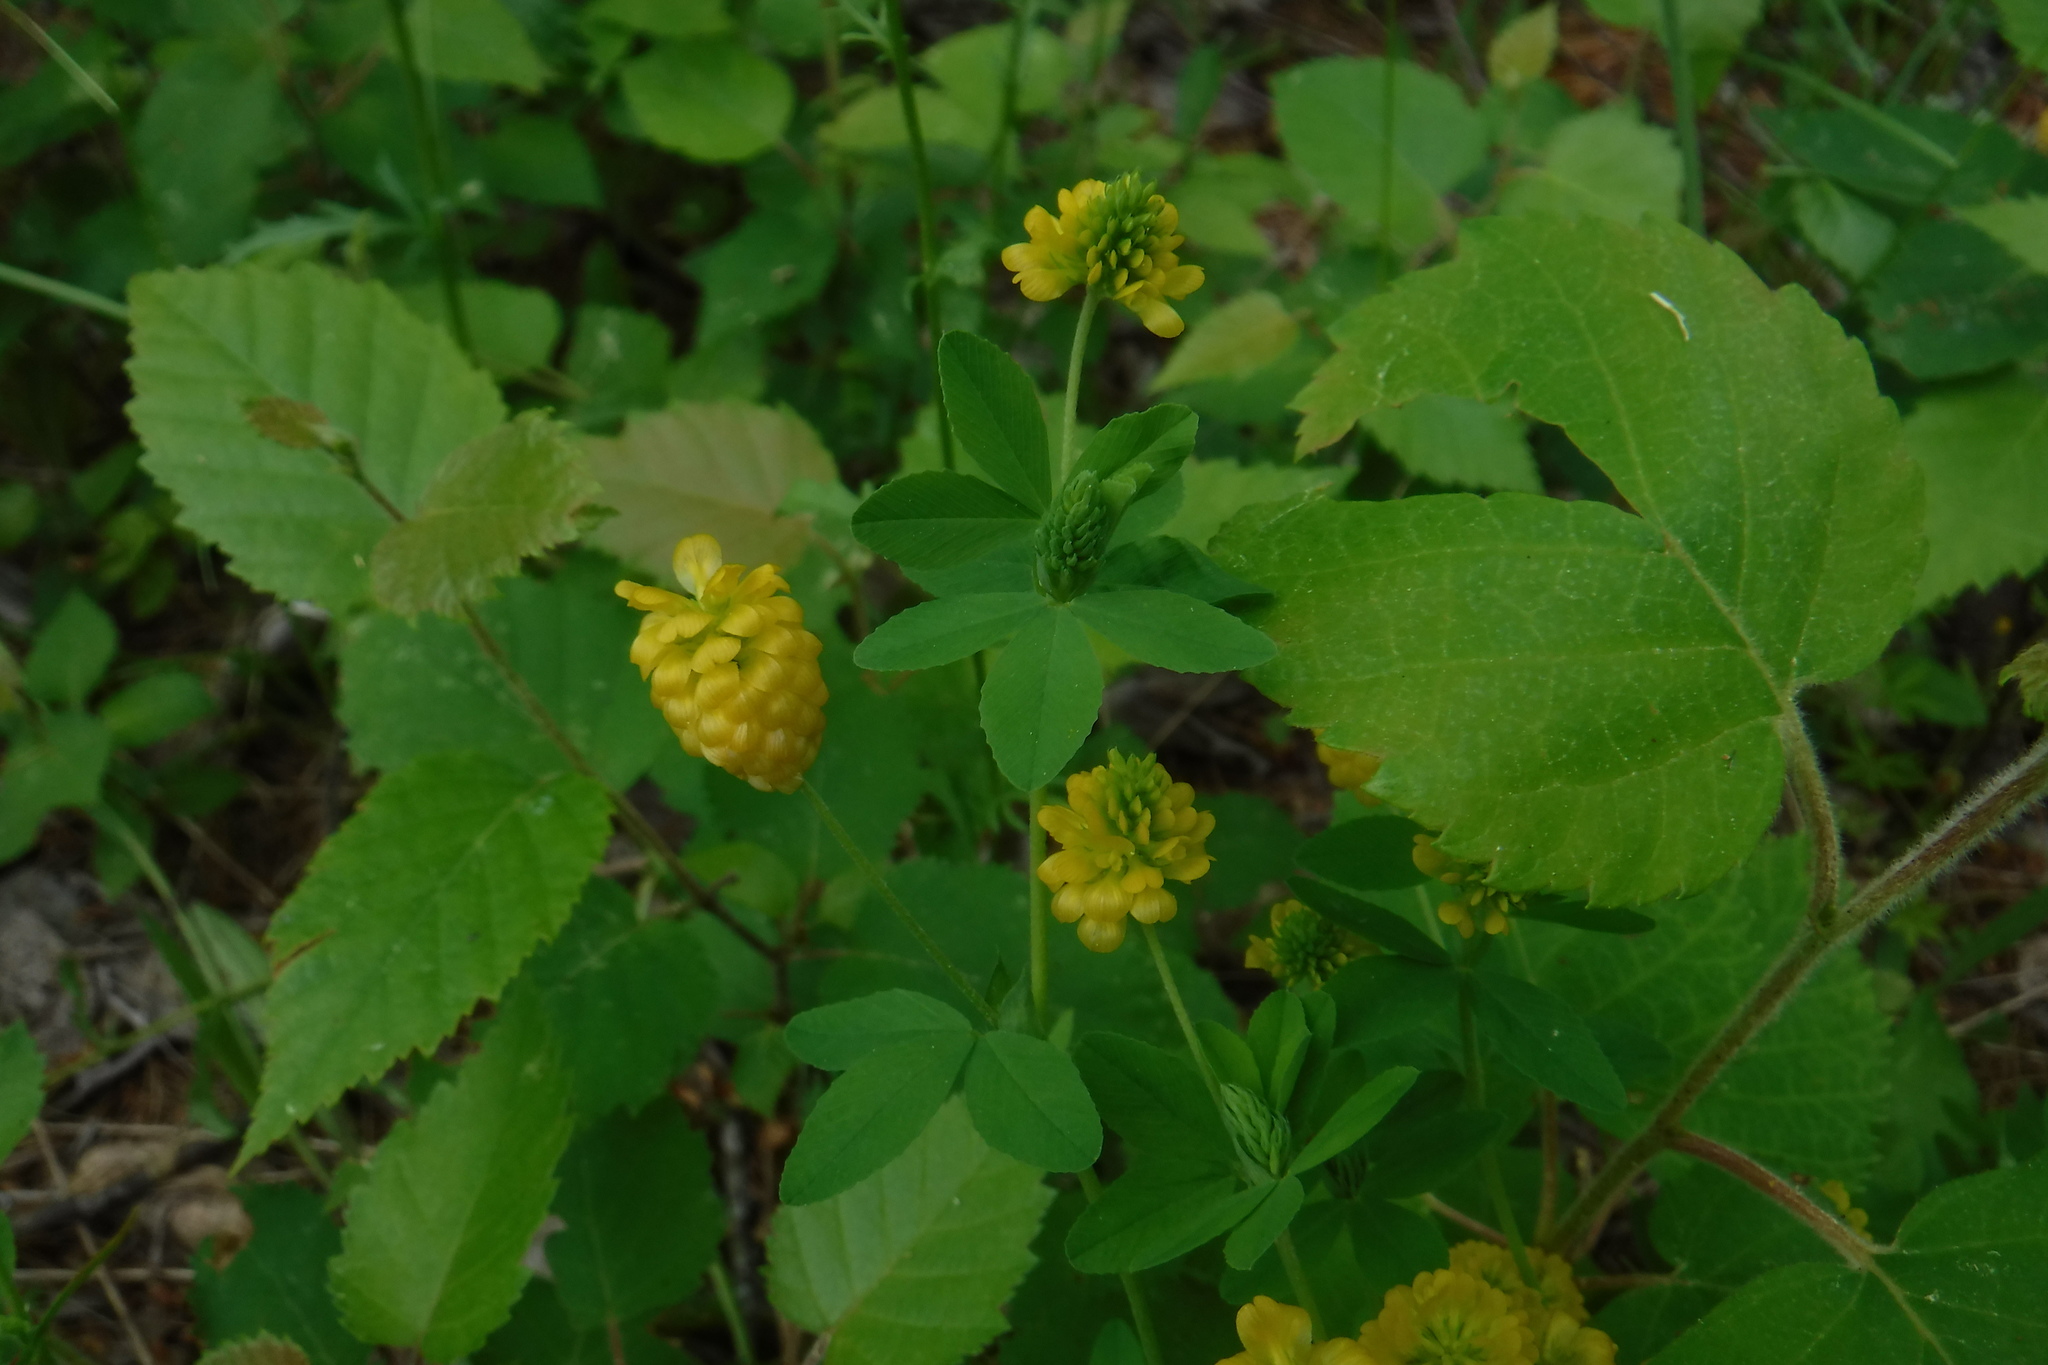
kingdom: Plantae
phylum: Tracheophyta
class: Magnoliopsida
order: Fabales
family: Fabaceae
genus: Trifolium
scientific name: Trifolium aureum
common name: Golden clover
